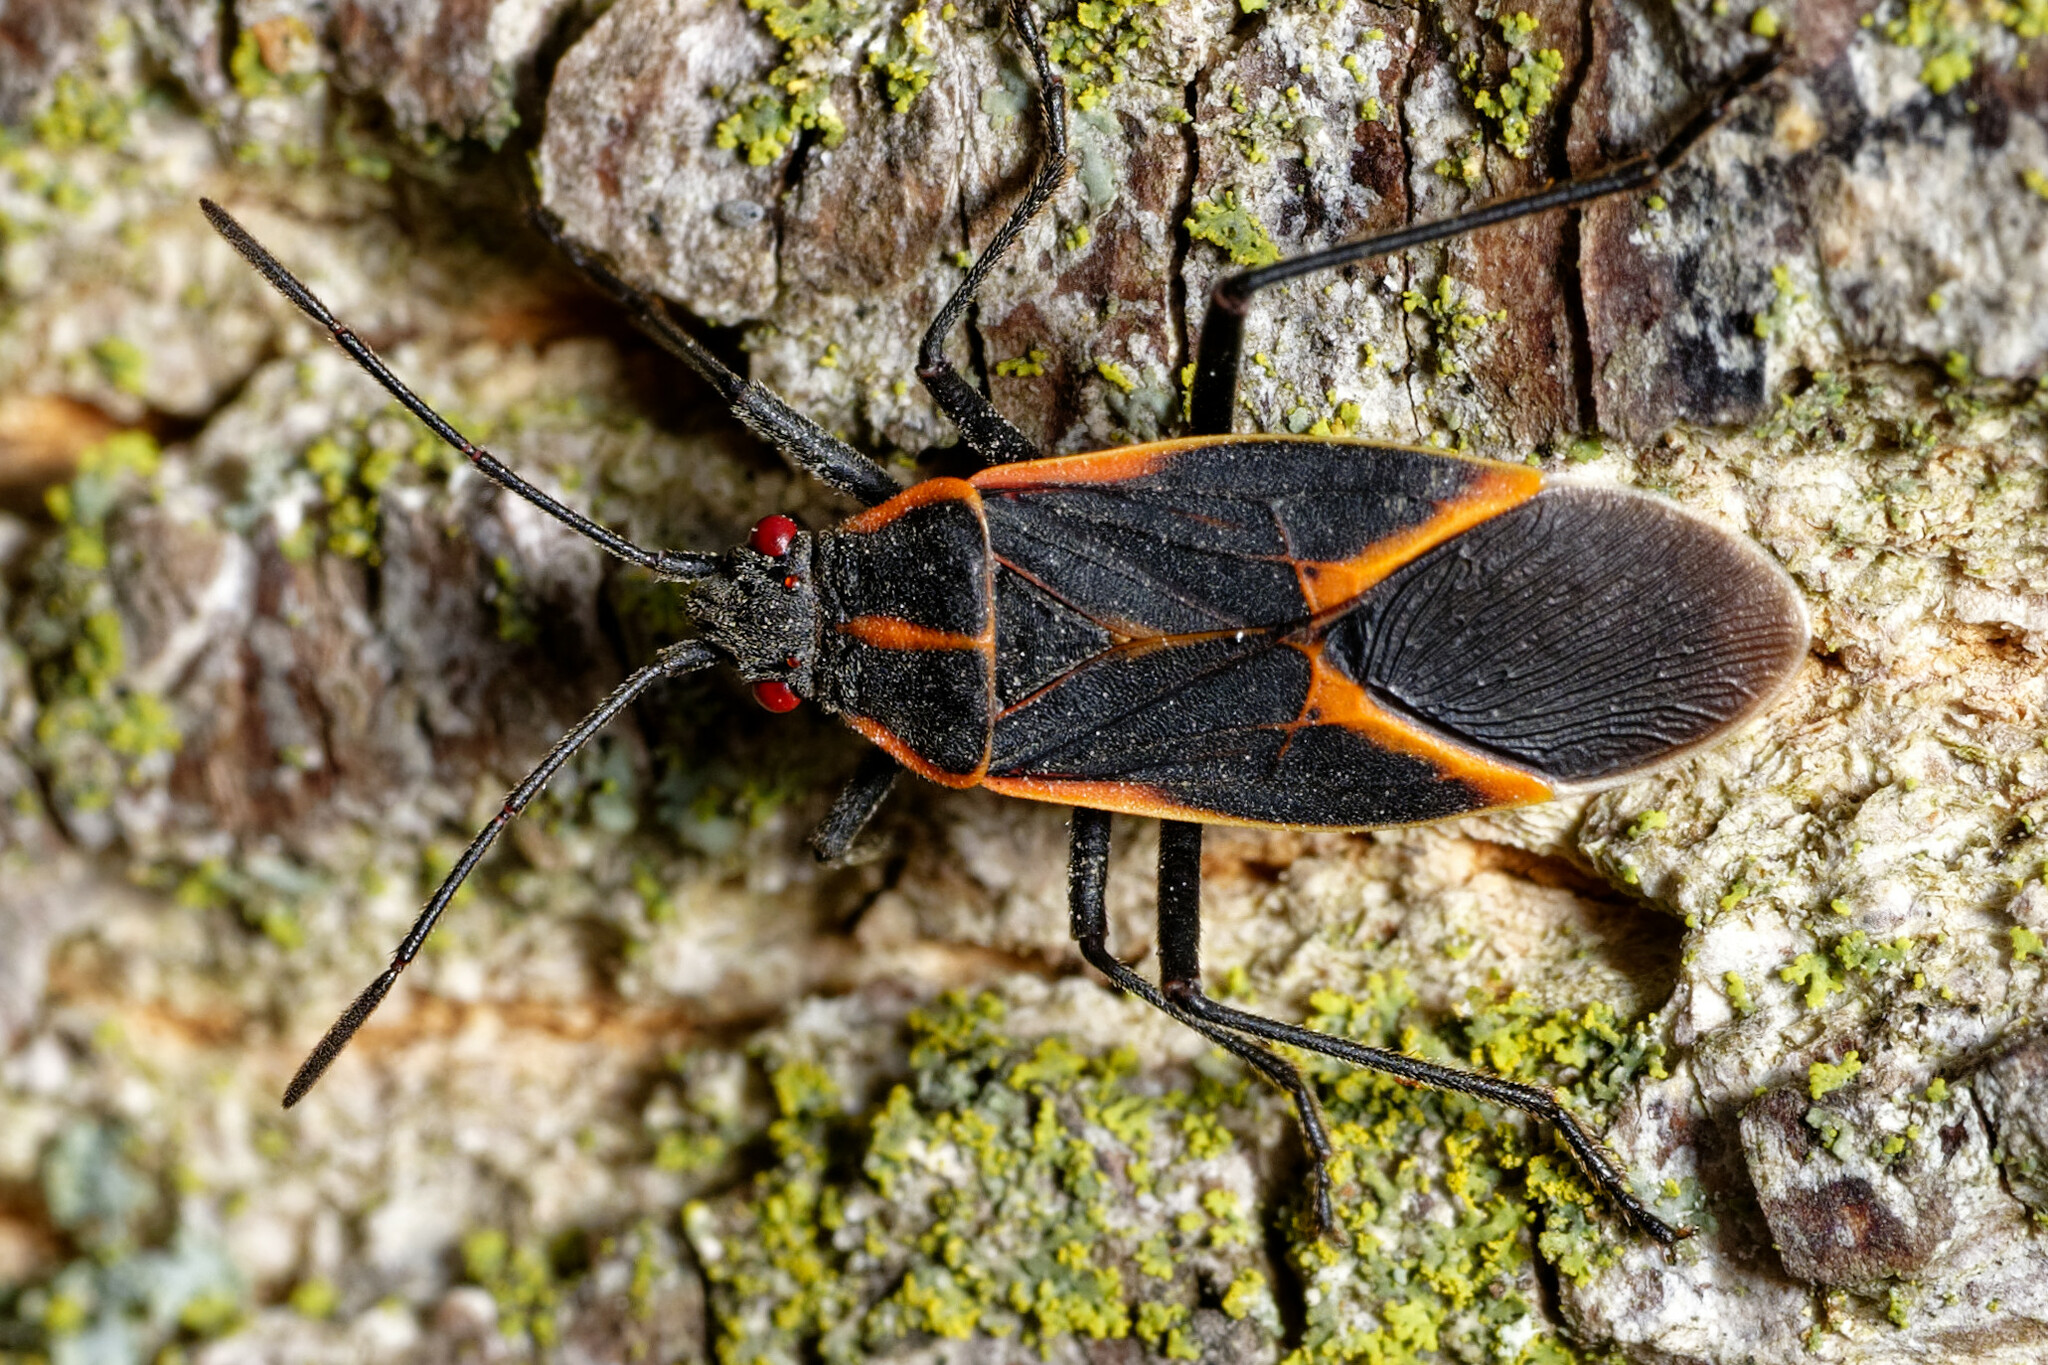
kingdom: Animalia
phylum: Arthropoda
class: Insecta
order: Hemiptera
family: Rhopalidae
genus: Boisea
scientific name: Boisea trivittata
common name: Boxelder bug
